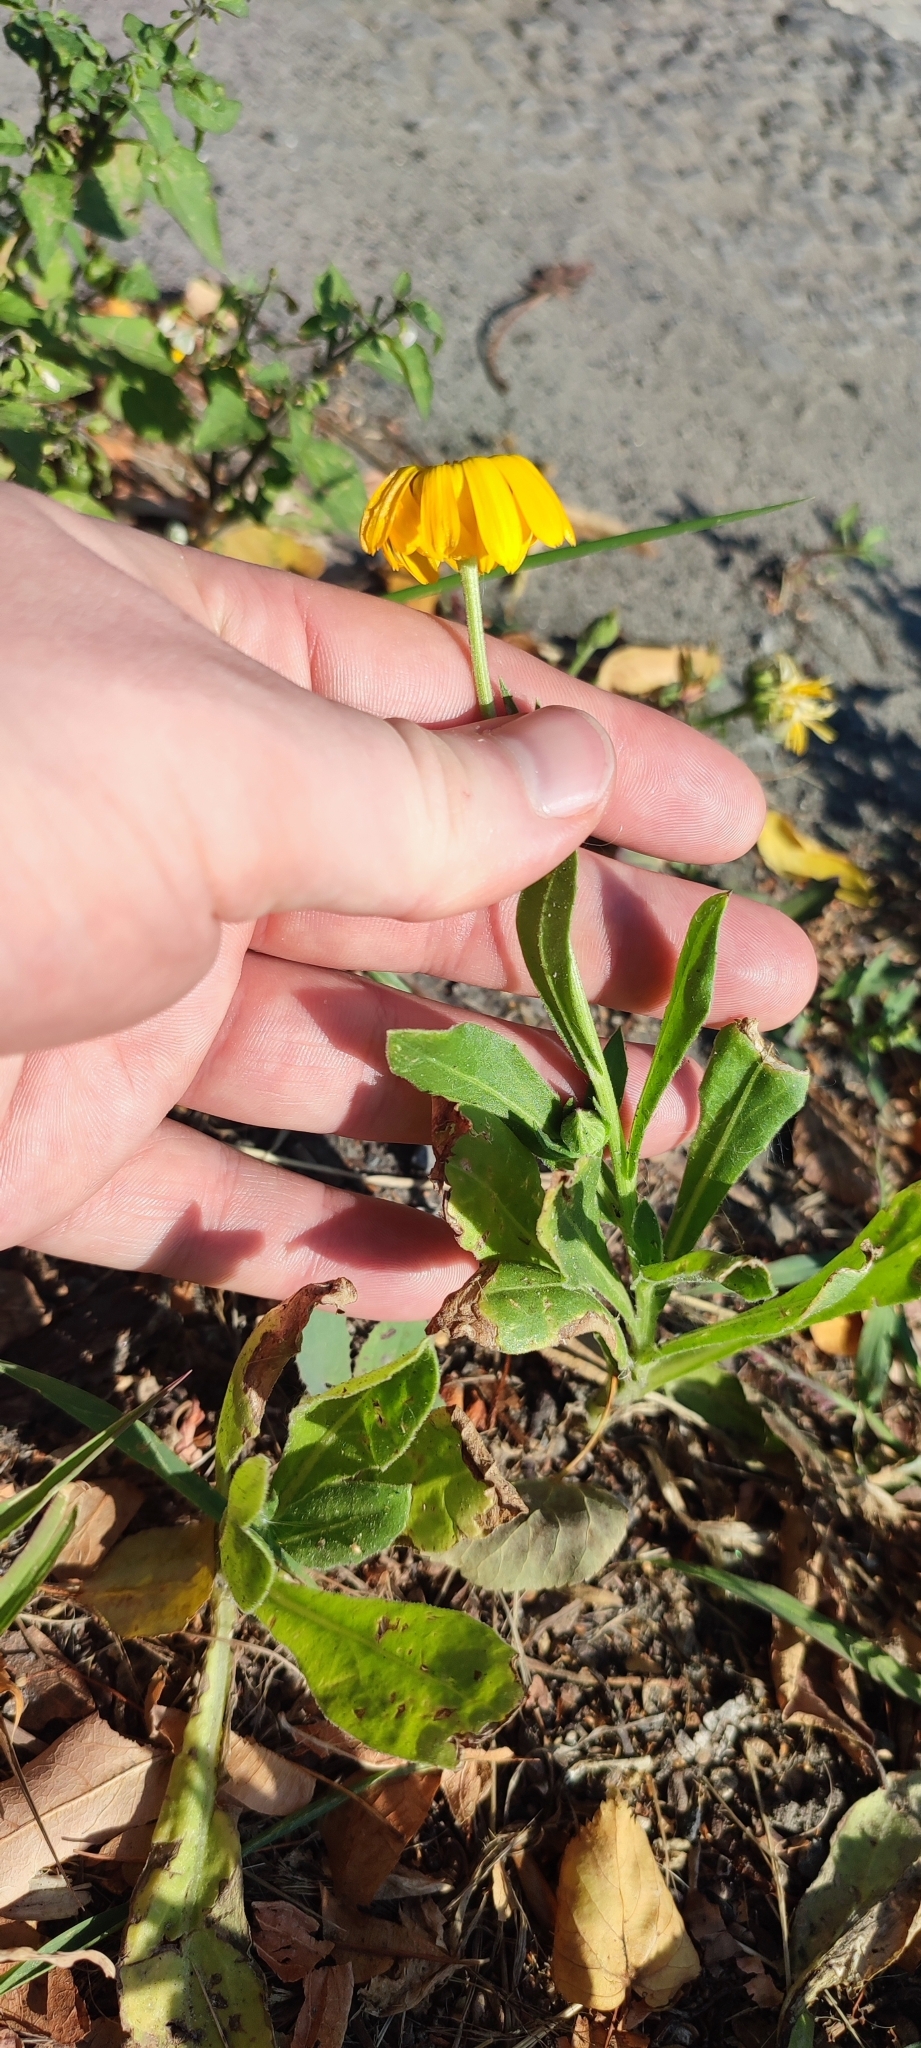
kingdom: Plantae
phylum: Tracheophyta
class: Magnoliopsida
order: Asterales
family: Asteraceae
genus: Calendula
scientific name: Calendula officinalis
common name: Pot marigold
